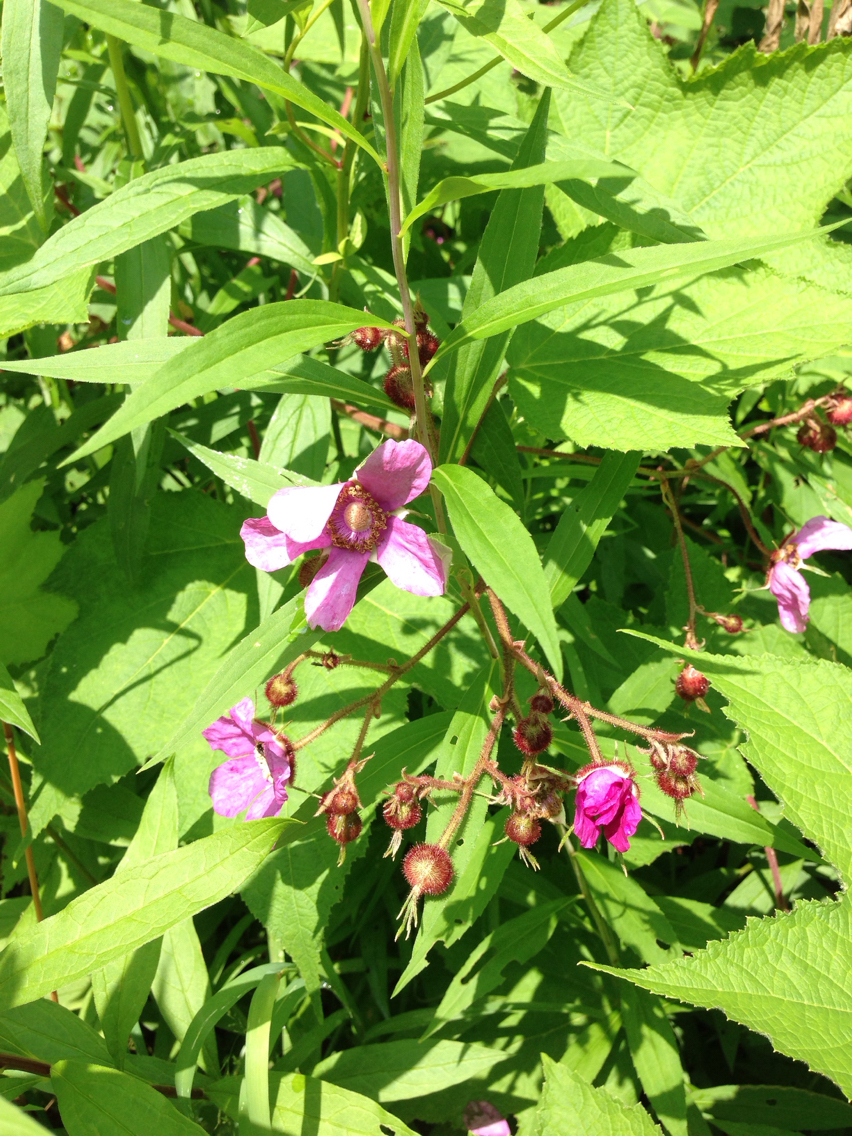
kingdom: Plantae
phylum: Tracheophyta
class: Magnoliopsida
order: Rosales
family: Rosaceae
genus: Rubus
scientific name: Rubus odoratus
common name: Purple-flowered raspberry
